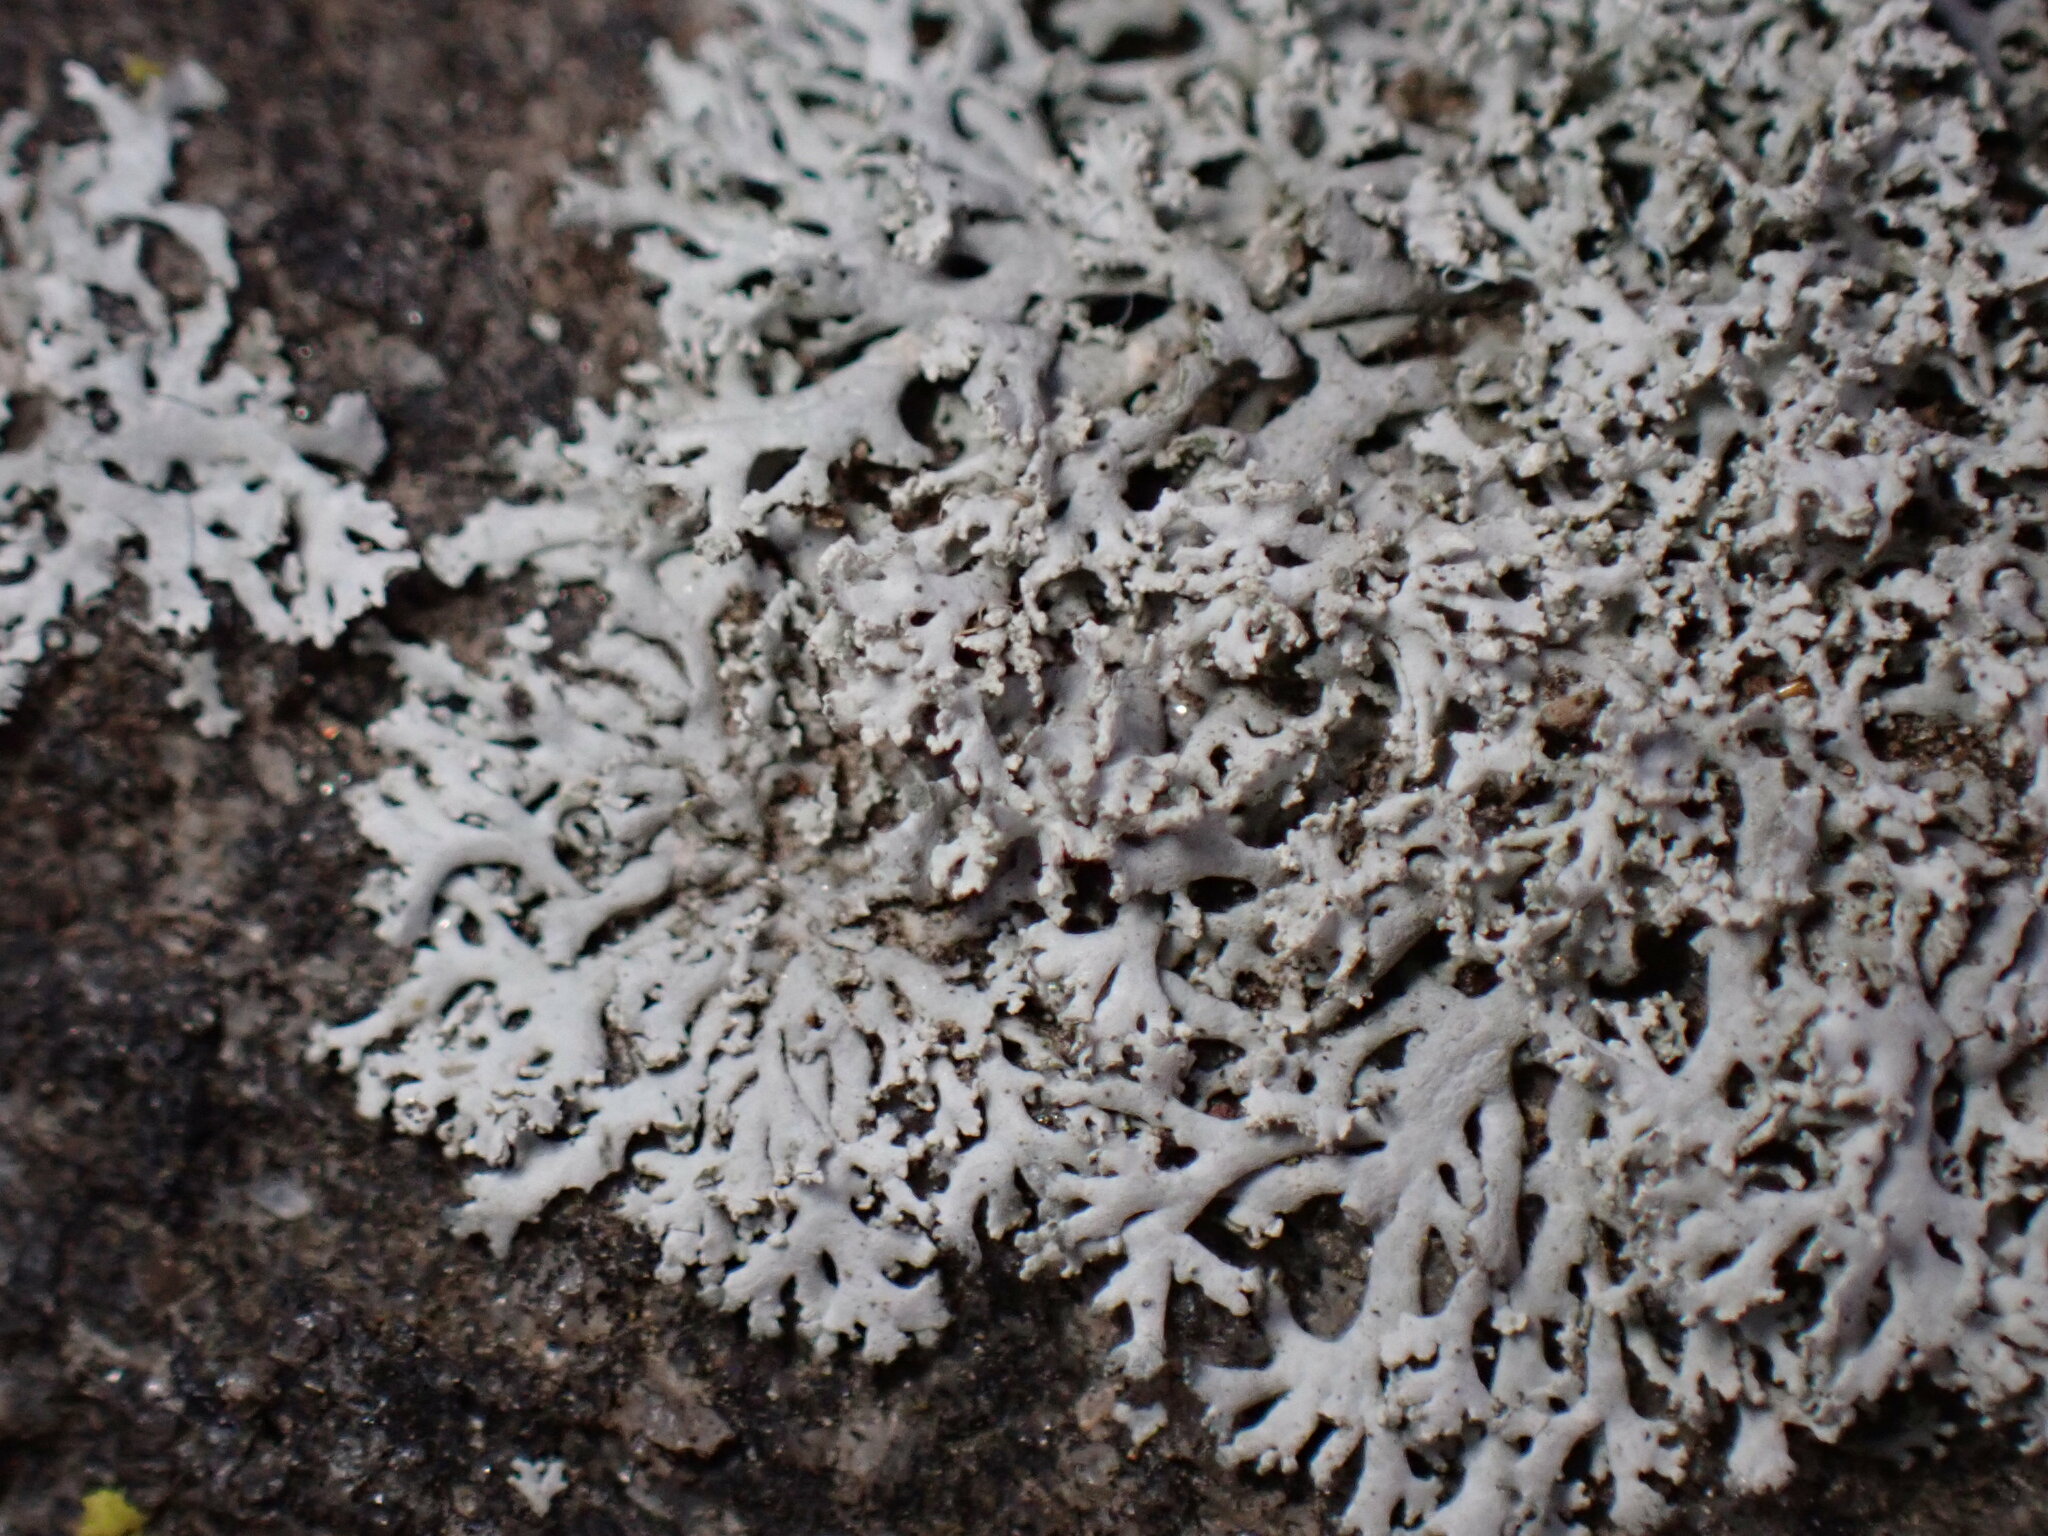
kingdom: Fungi
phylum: Ascomycota
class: Lecanoromycetes
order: Caliciales
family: Physciaceae
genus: Physcia
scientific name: Physcia thomsoniana
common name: Thomson's rosette lichen
